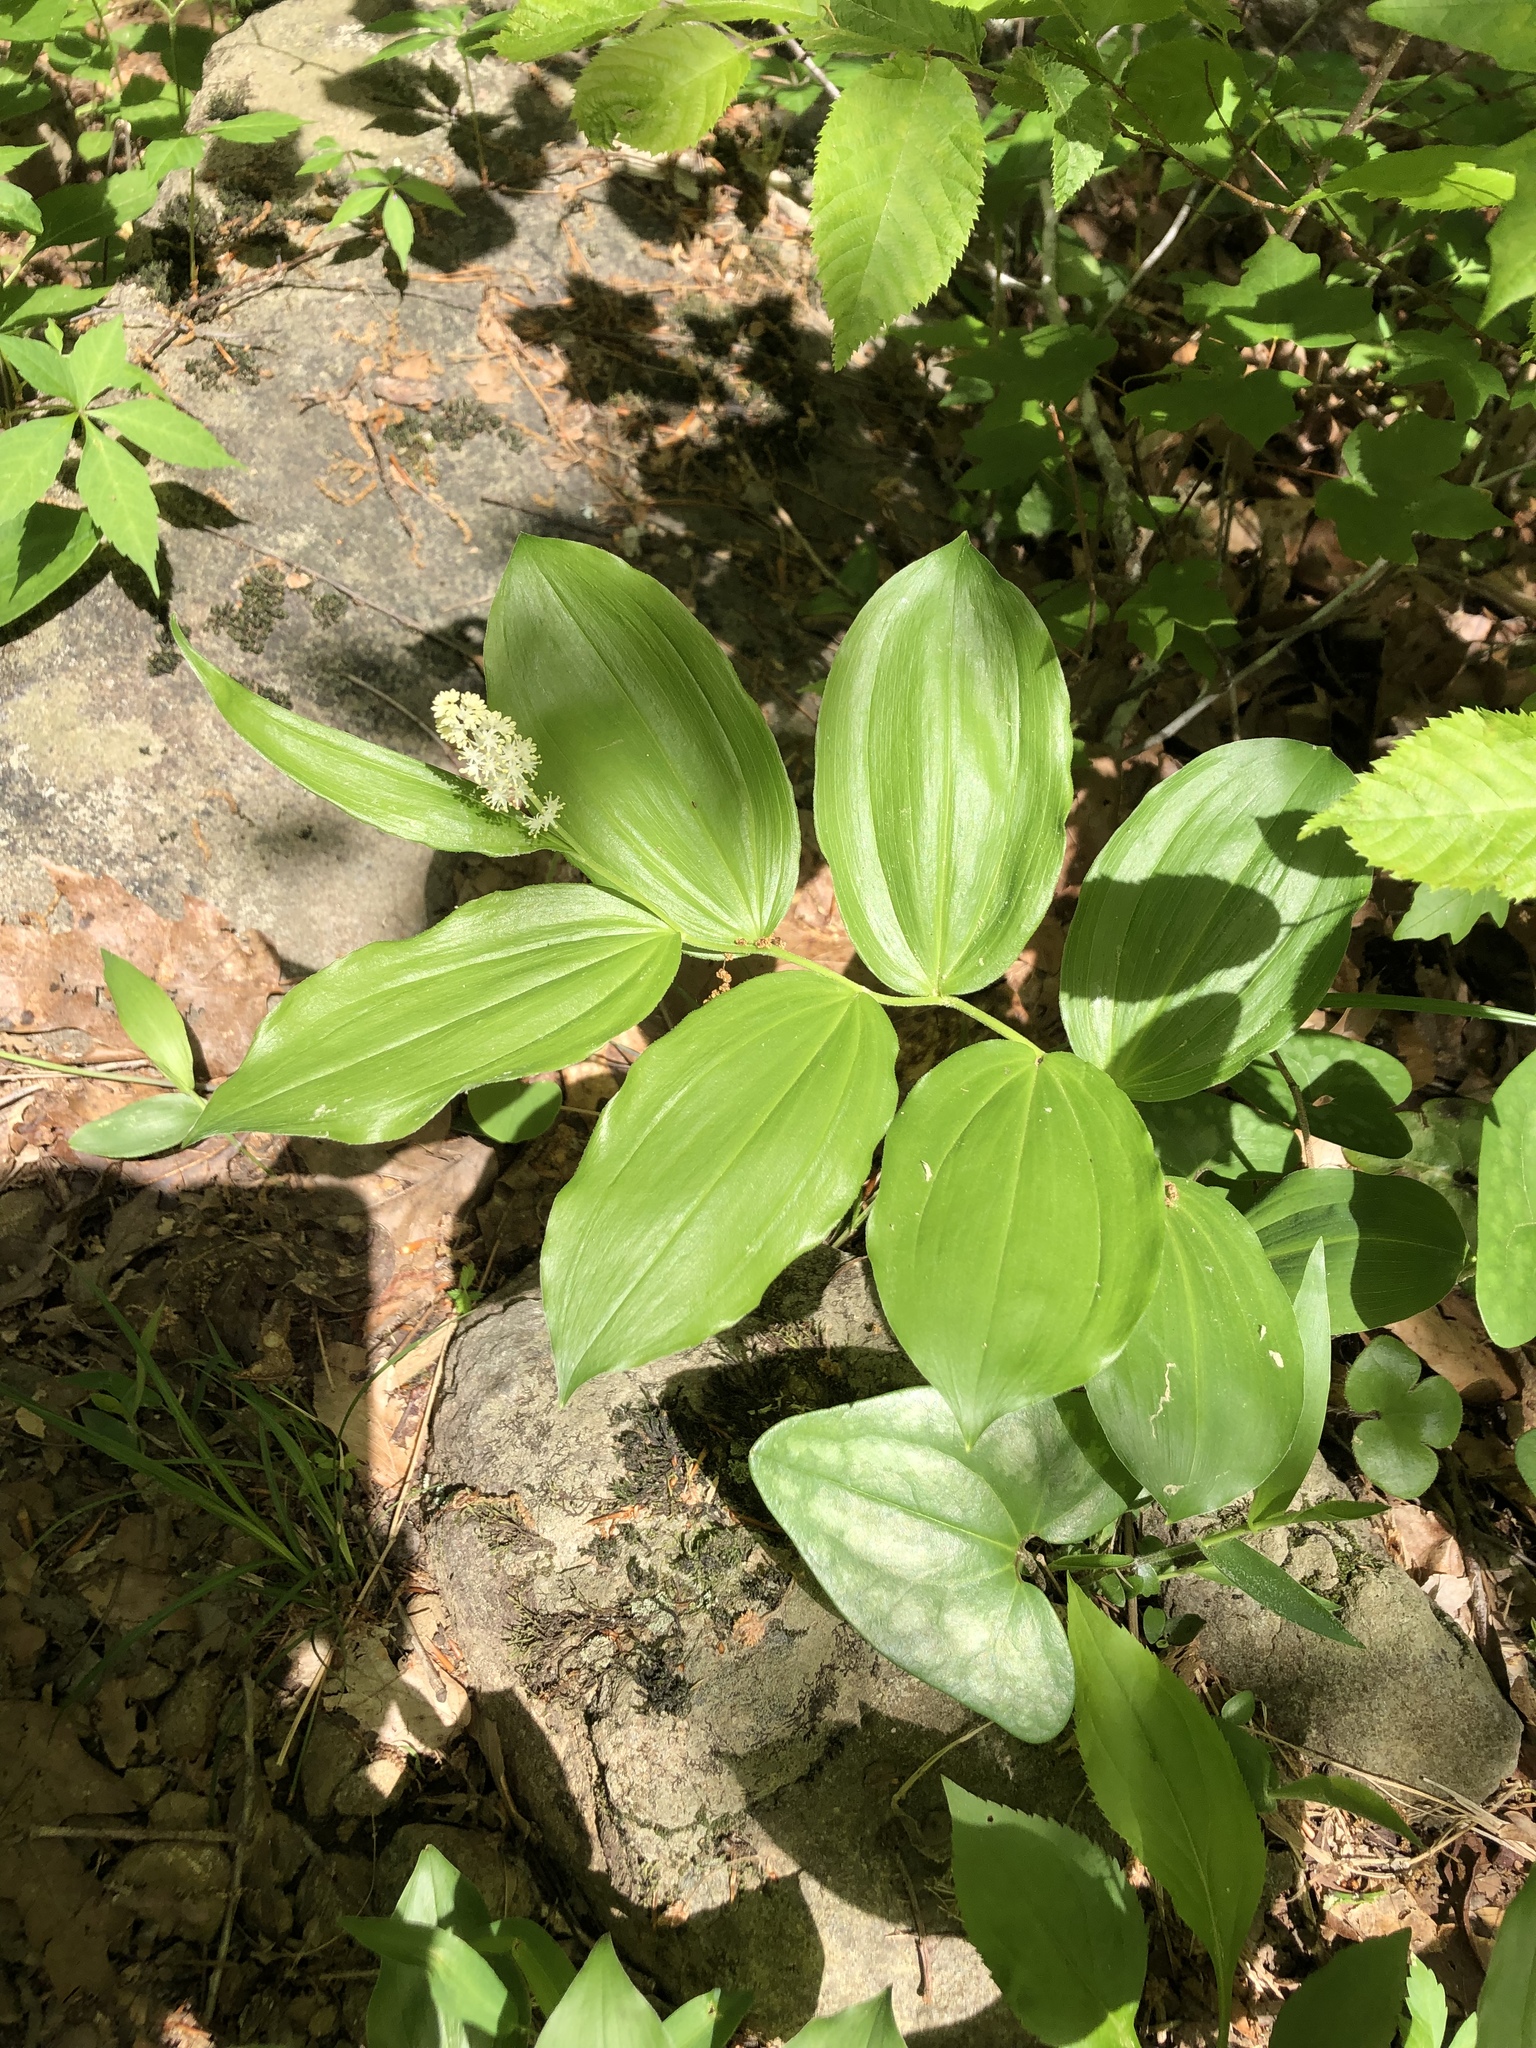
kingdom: Plantae
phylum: Tracheophyta
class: Liliopsida
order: Asparagales
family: Asparagaceae
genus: Maianthemum
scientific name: Maianthemum racemosum
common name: False spikenard
